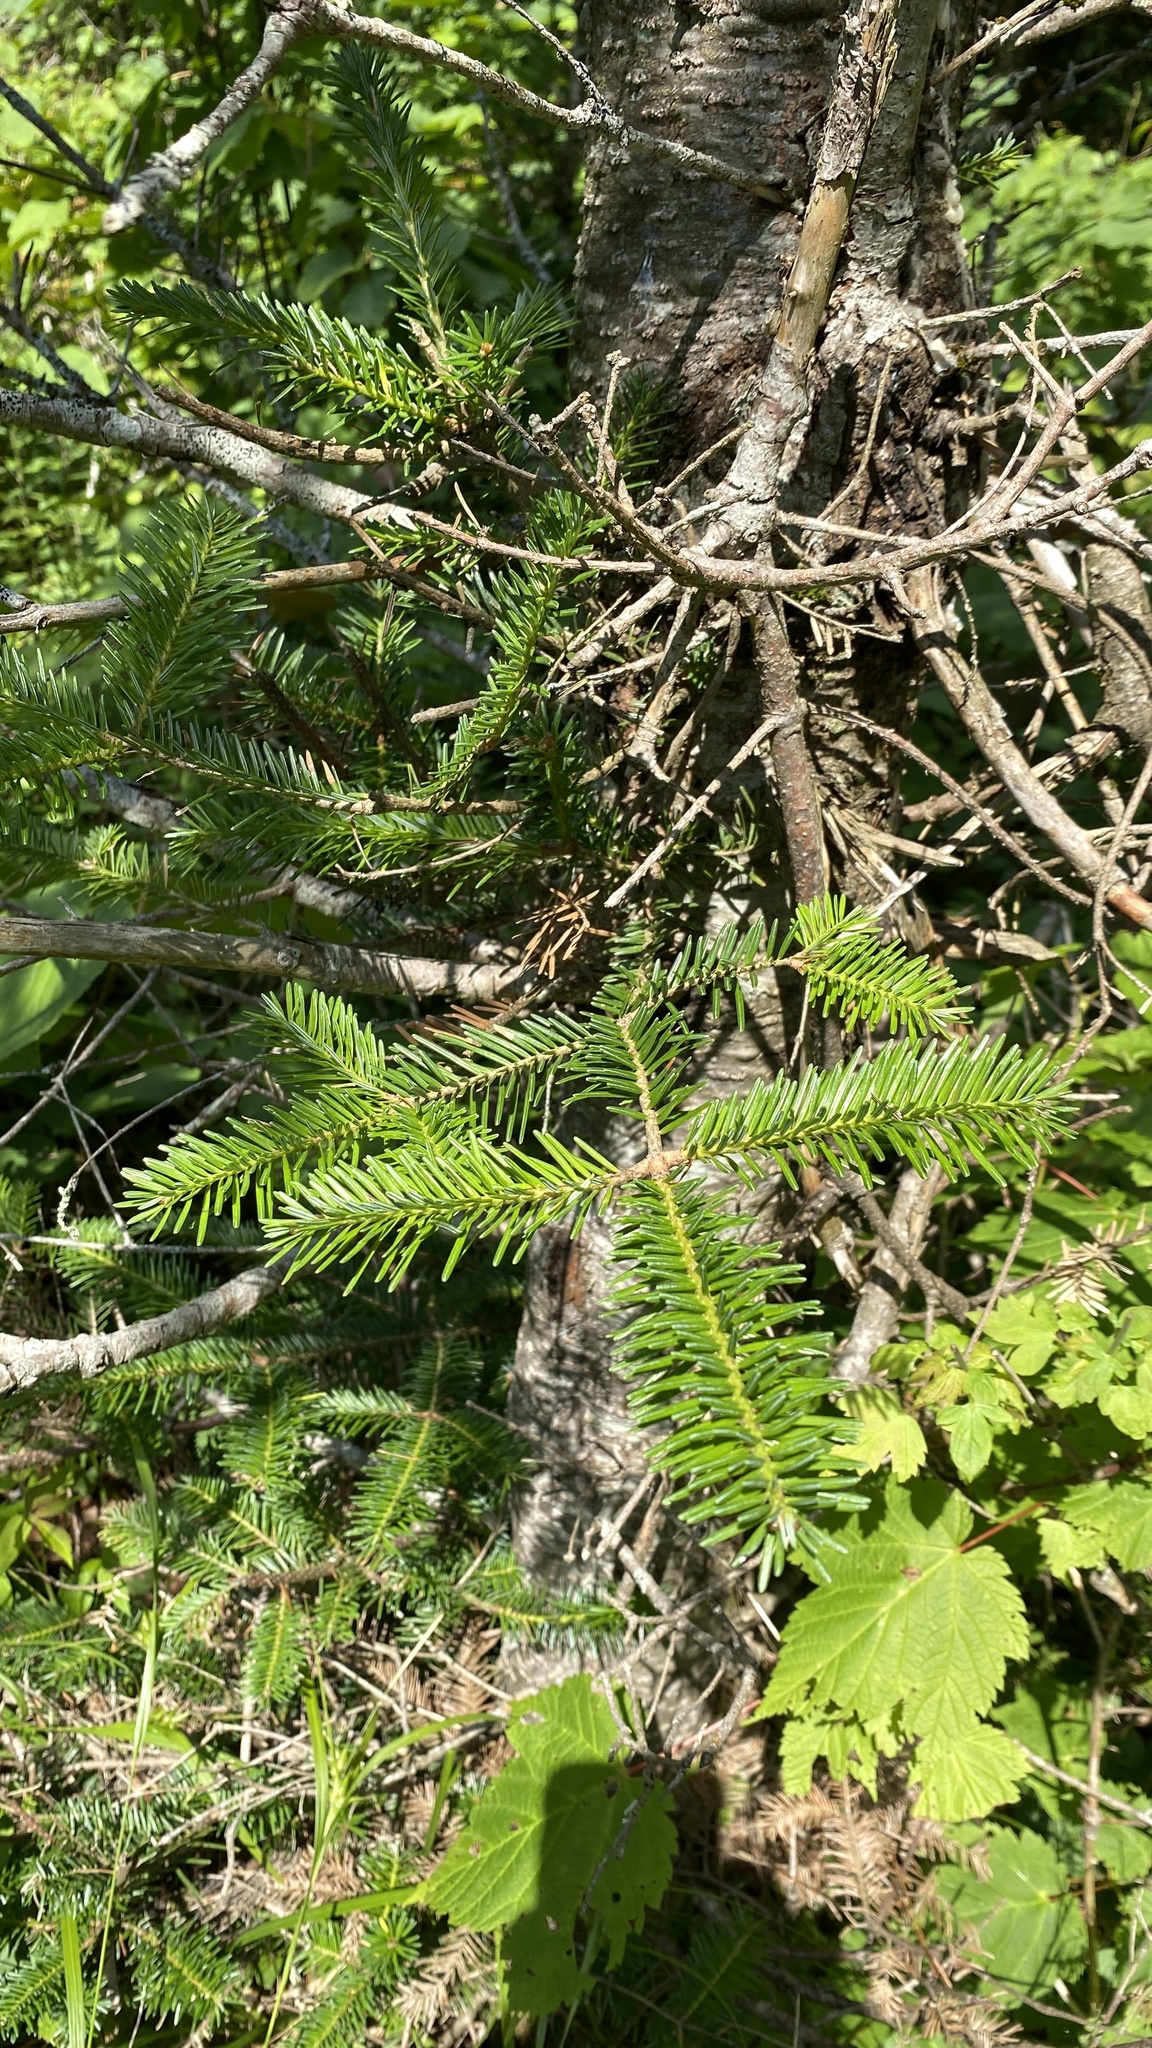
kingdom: Plantae
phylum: Tracheophyta
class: Pinopsida
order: Pinales
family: Pinaceae
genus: Abies
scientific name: Abies balsamea
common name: Balsam fir
